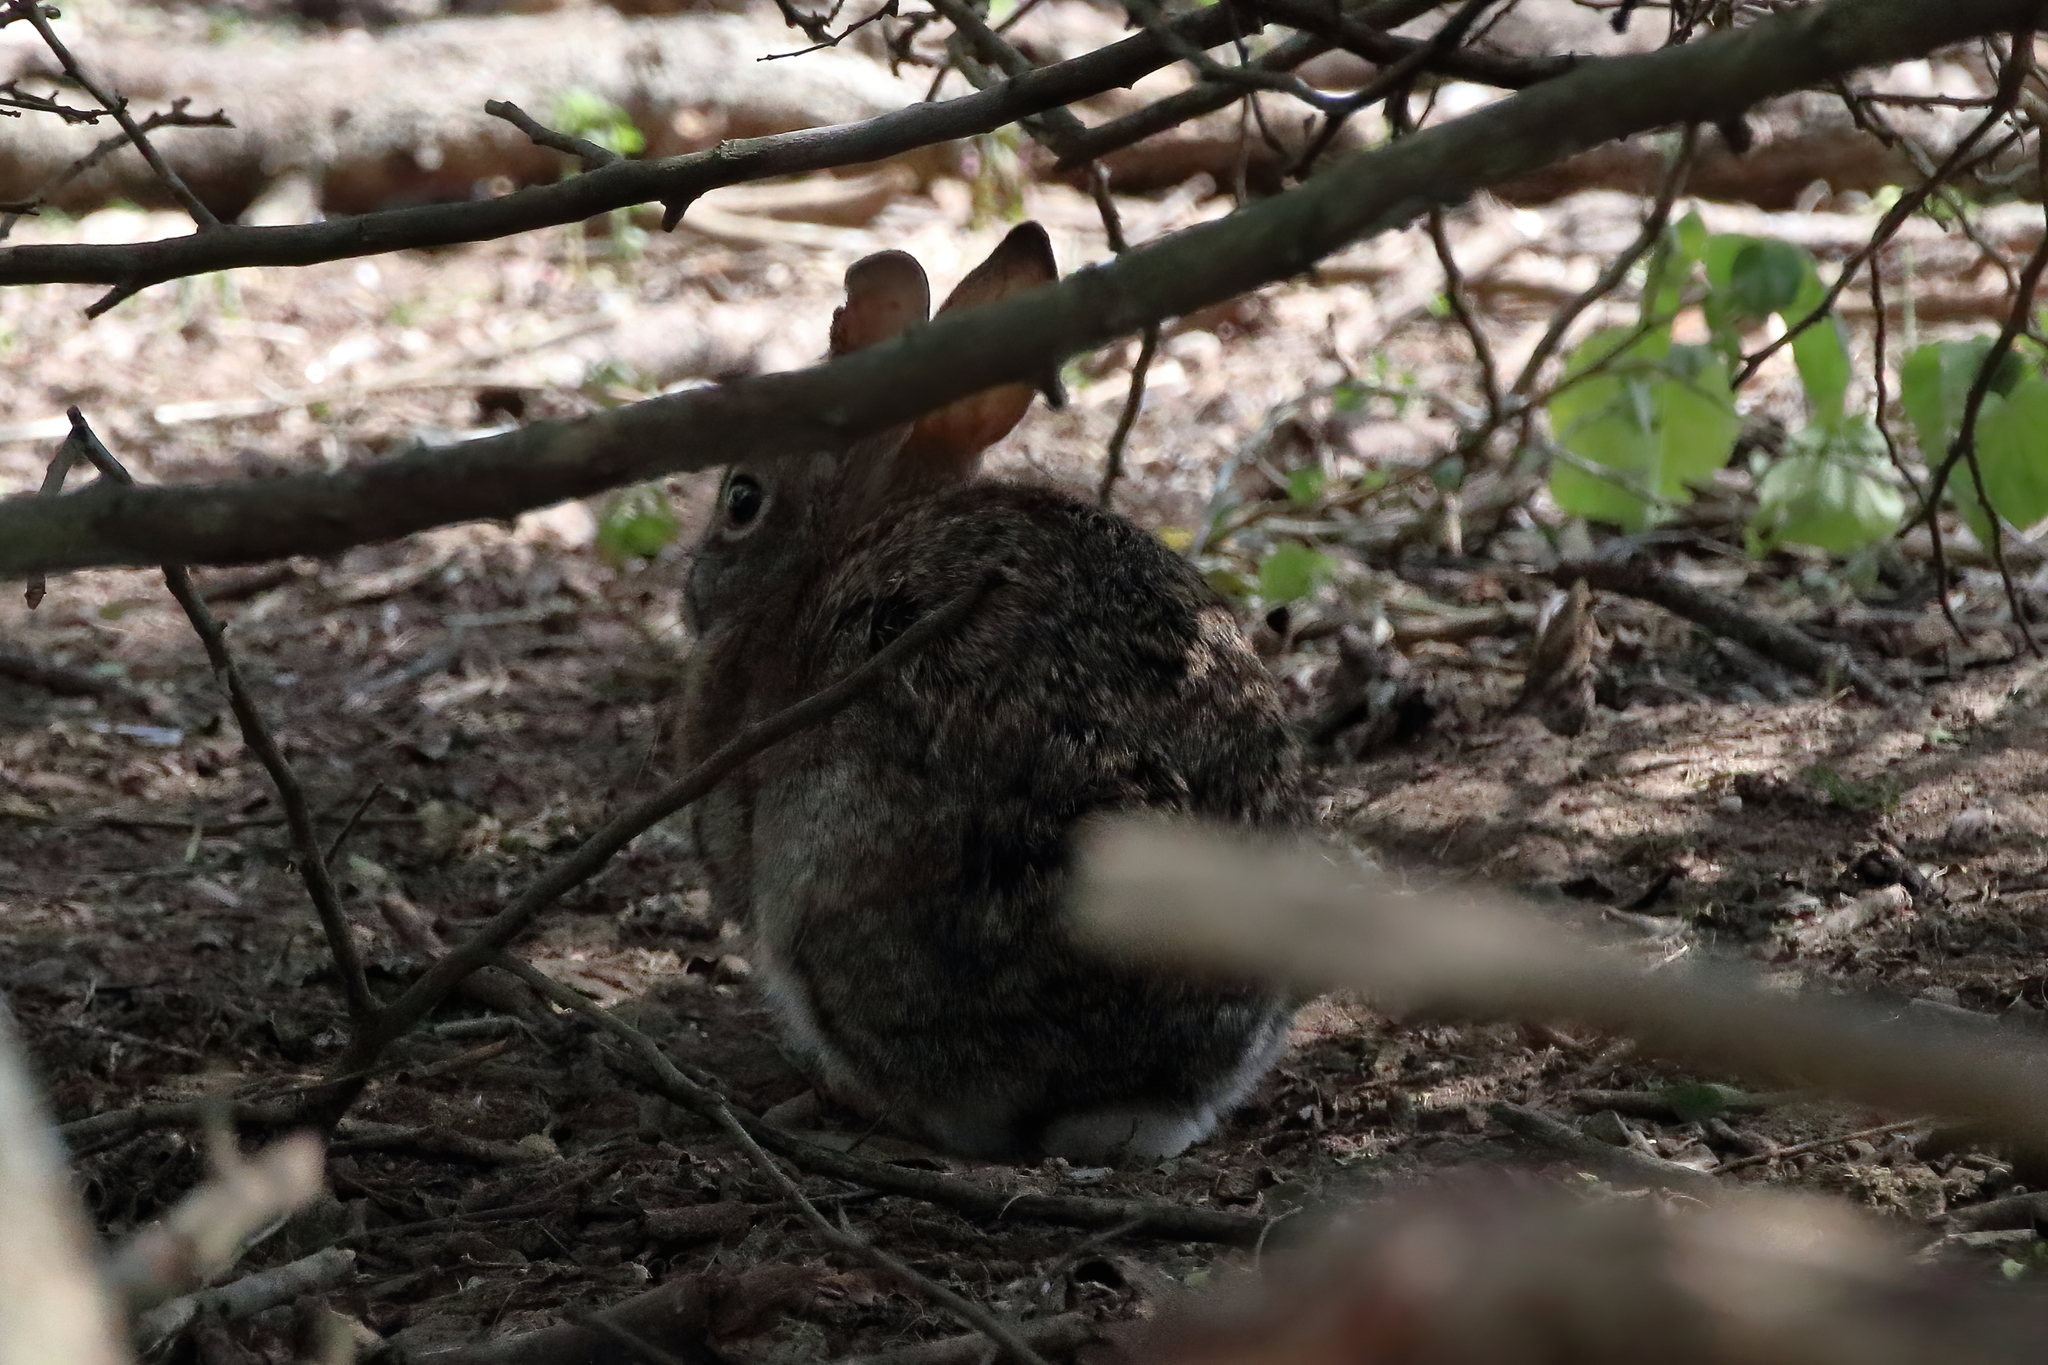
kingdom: Animalia
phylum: Chordata
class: Mammalia
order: Lagomorpha
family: Leporidae
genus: Sylvilagus
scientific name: Sylvilagus floridanus
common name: Eastern cottontail
